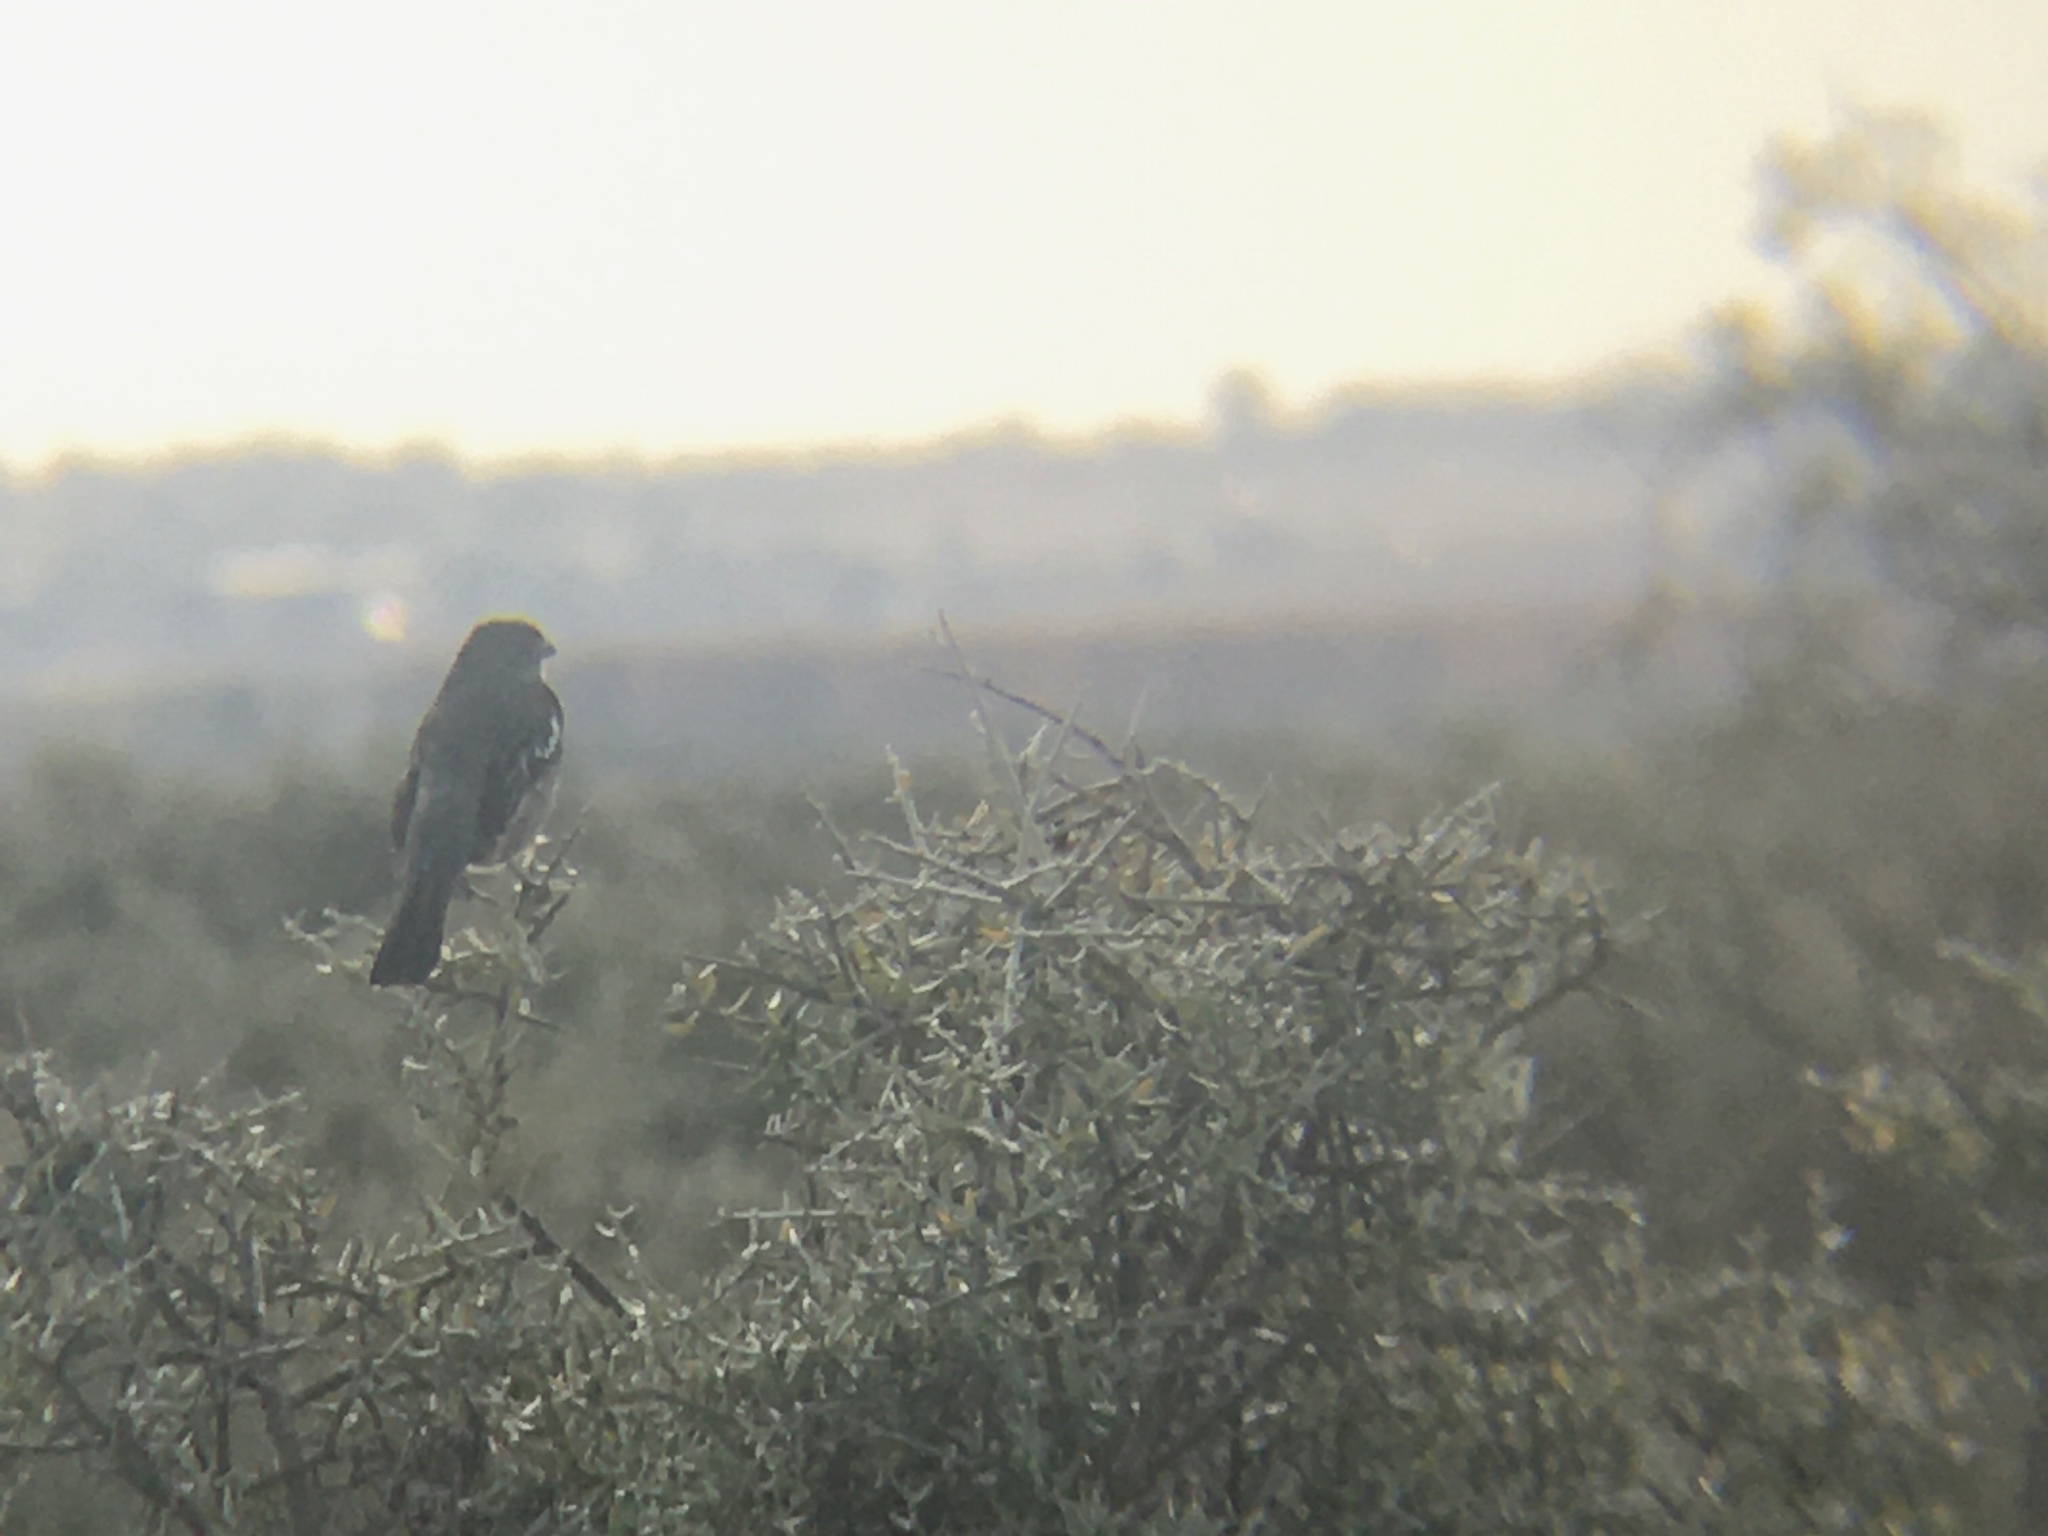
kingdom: Animalia
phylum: Chordata
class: Aves
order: Passeriformes
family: Cotingidae
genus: Phytotoma
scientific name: Phytotoma rutila
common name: White-tipped plantcutter
